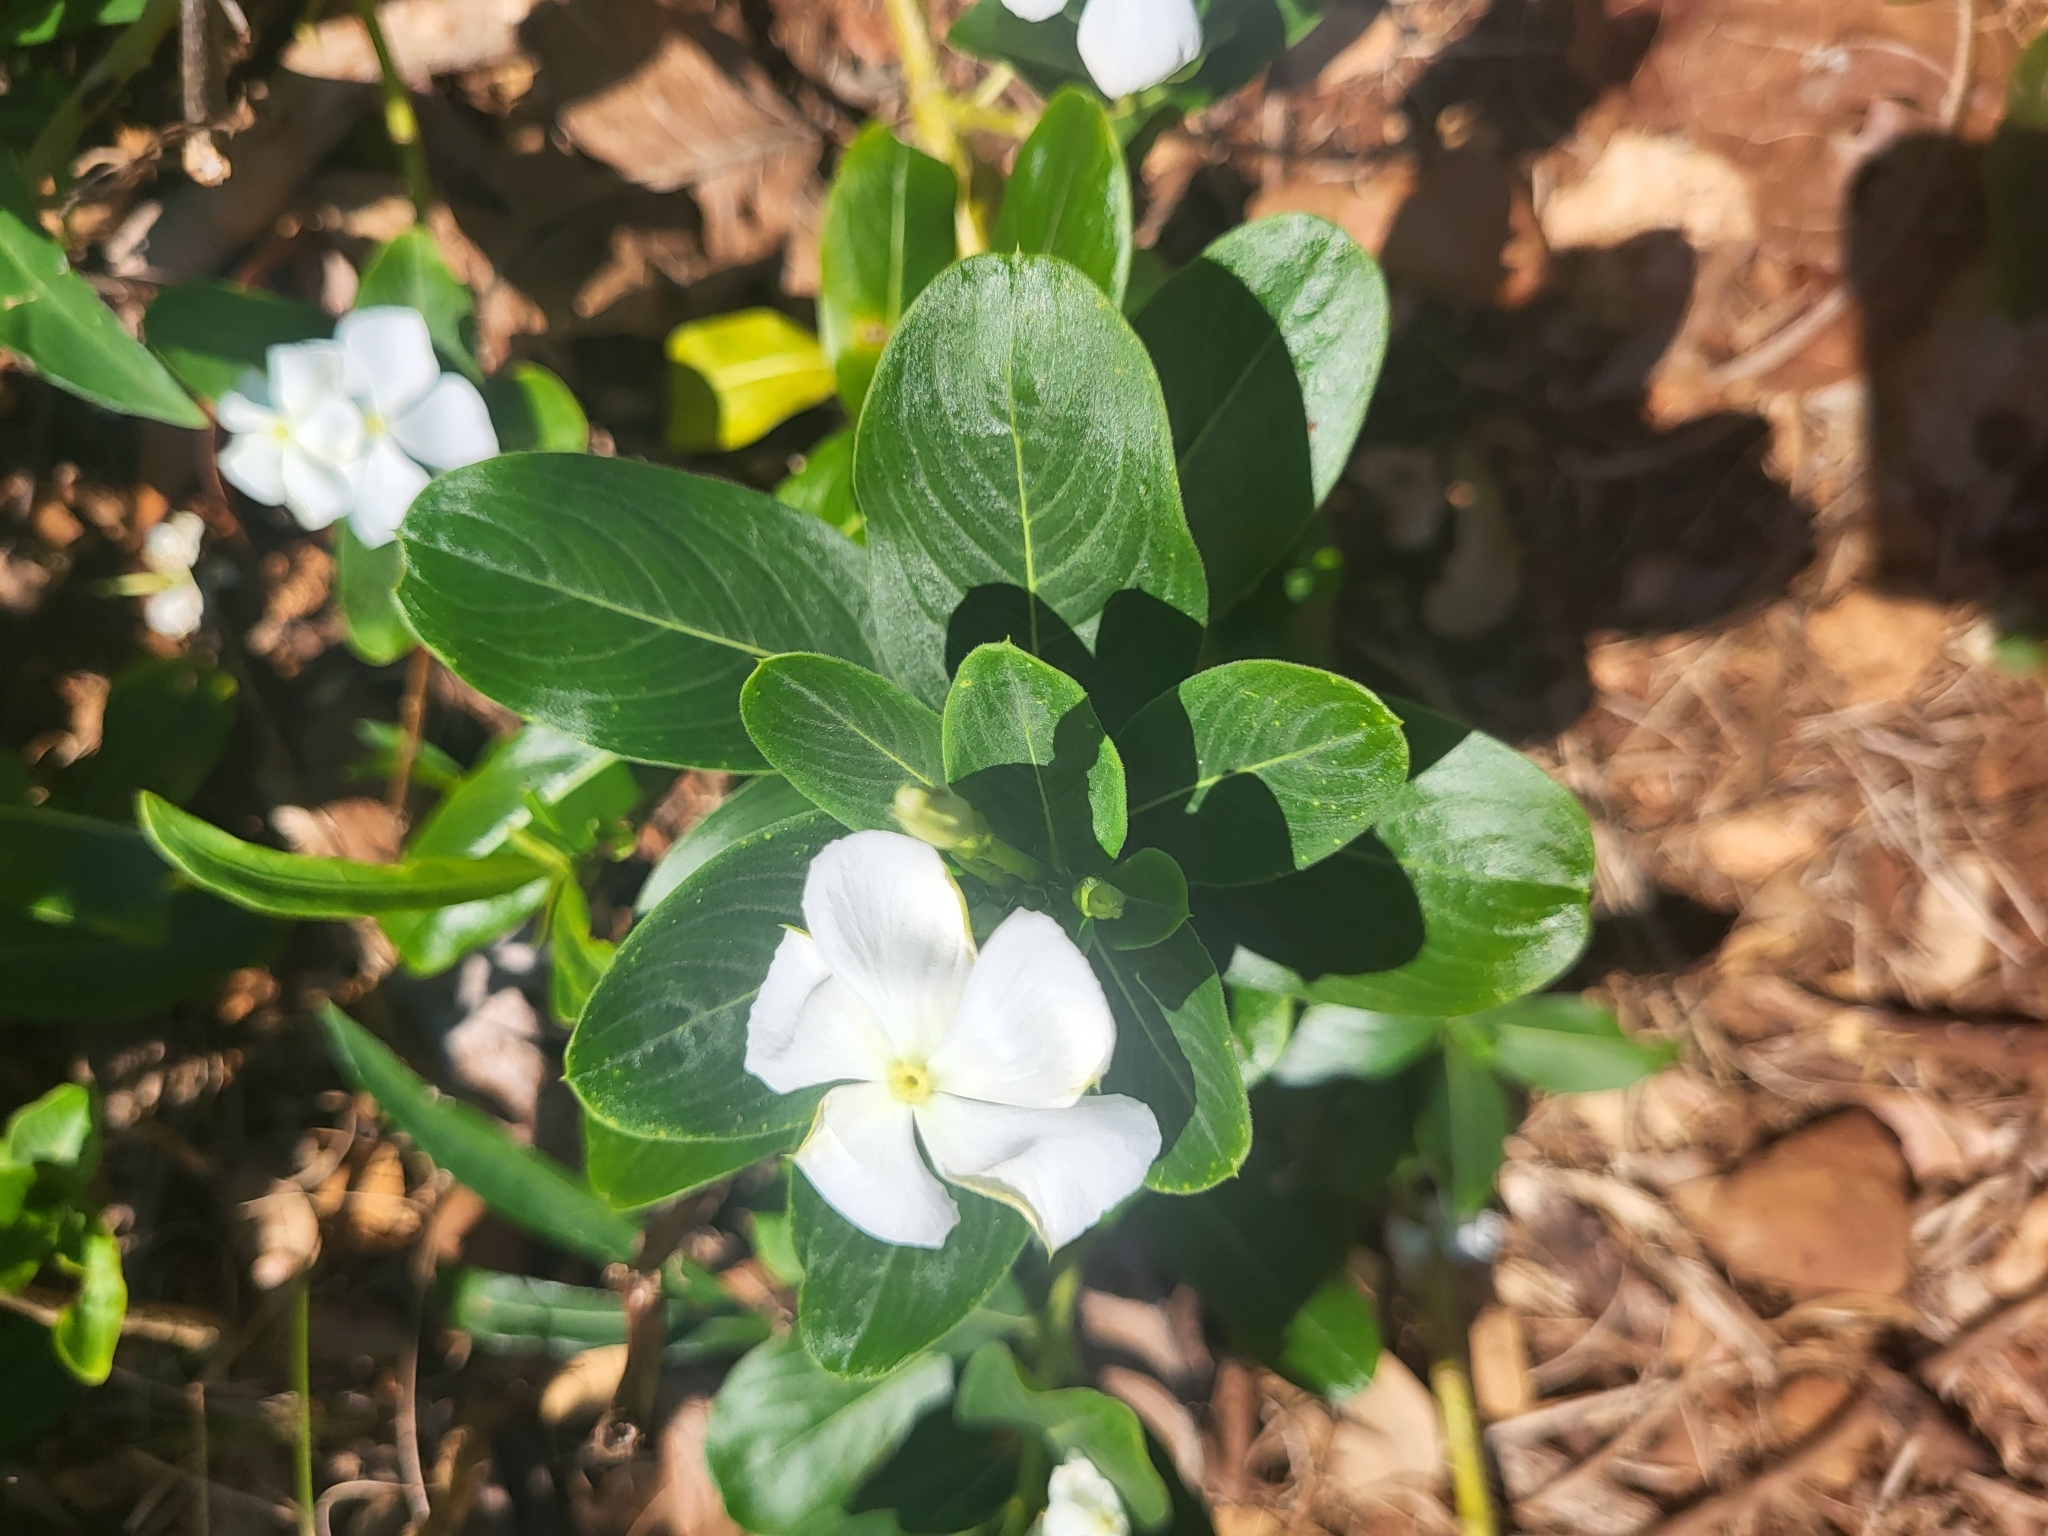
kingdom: Plantae
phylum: Tracheophyta
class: Magnoliopsida
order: Gentianales
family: Apocynaceae
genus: Catharanthus
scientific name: Catharanthus roseus
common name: Madagascar periwinkle
